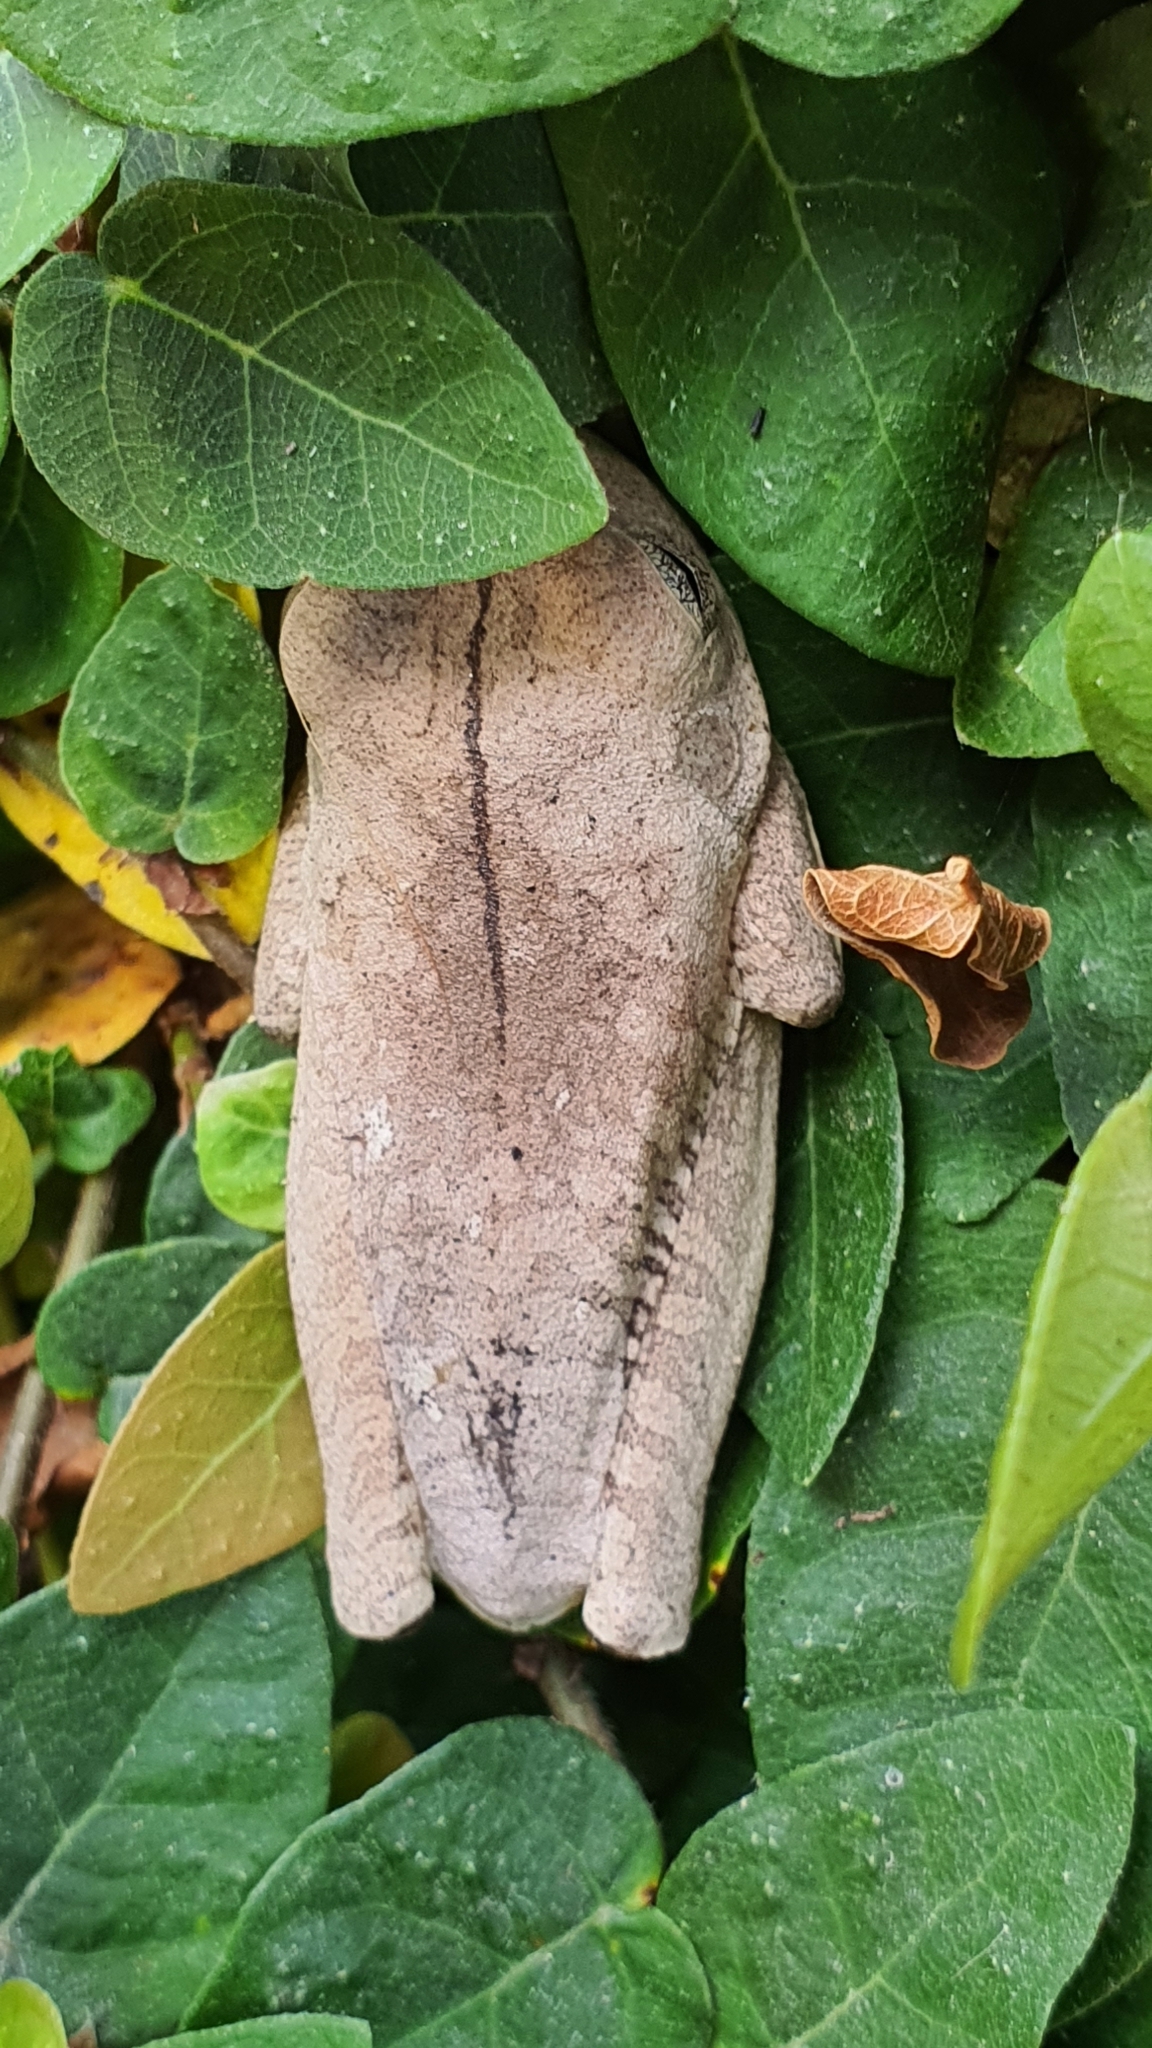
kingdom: Animalia
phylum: Chordata
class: Amphibia
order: Anura
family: Hylidae
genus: Boana
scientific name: Boana faber
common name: Blacksmith tree frog
